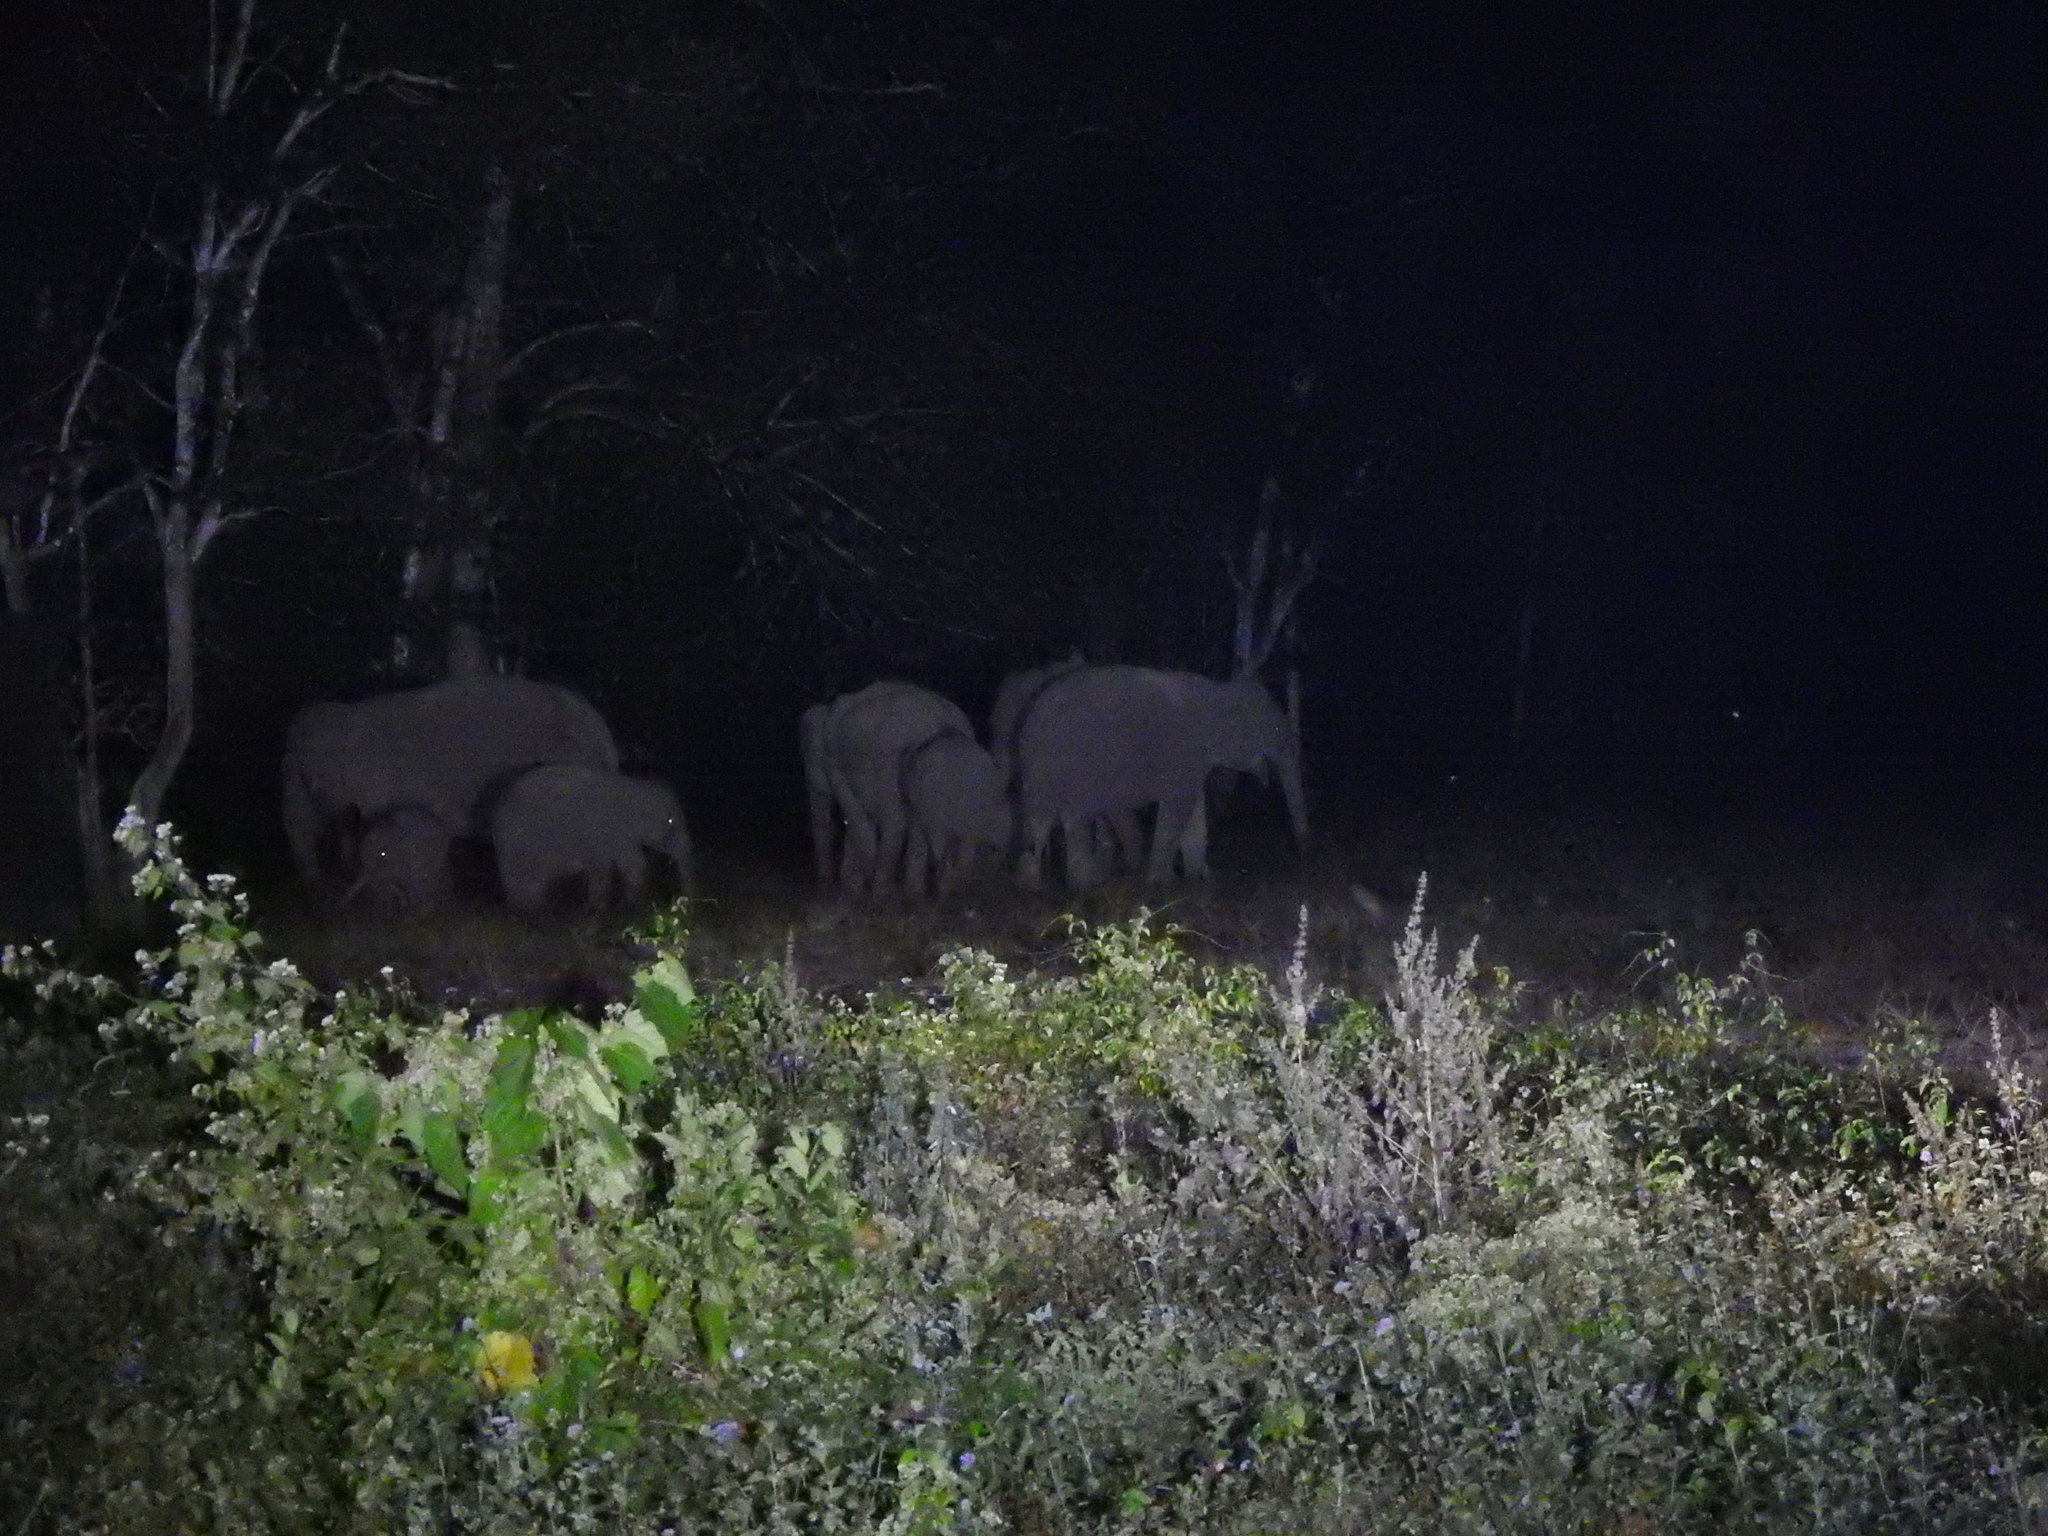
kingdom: Animalia
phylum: Chordata
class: Mammalia
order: Proboscidea
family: Elephantidae
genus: Elephas
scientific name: Elephas maximus
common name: Asian elephant
